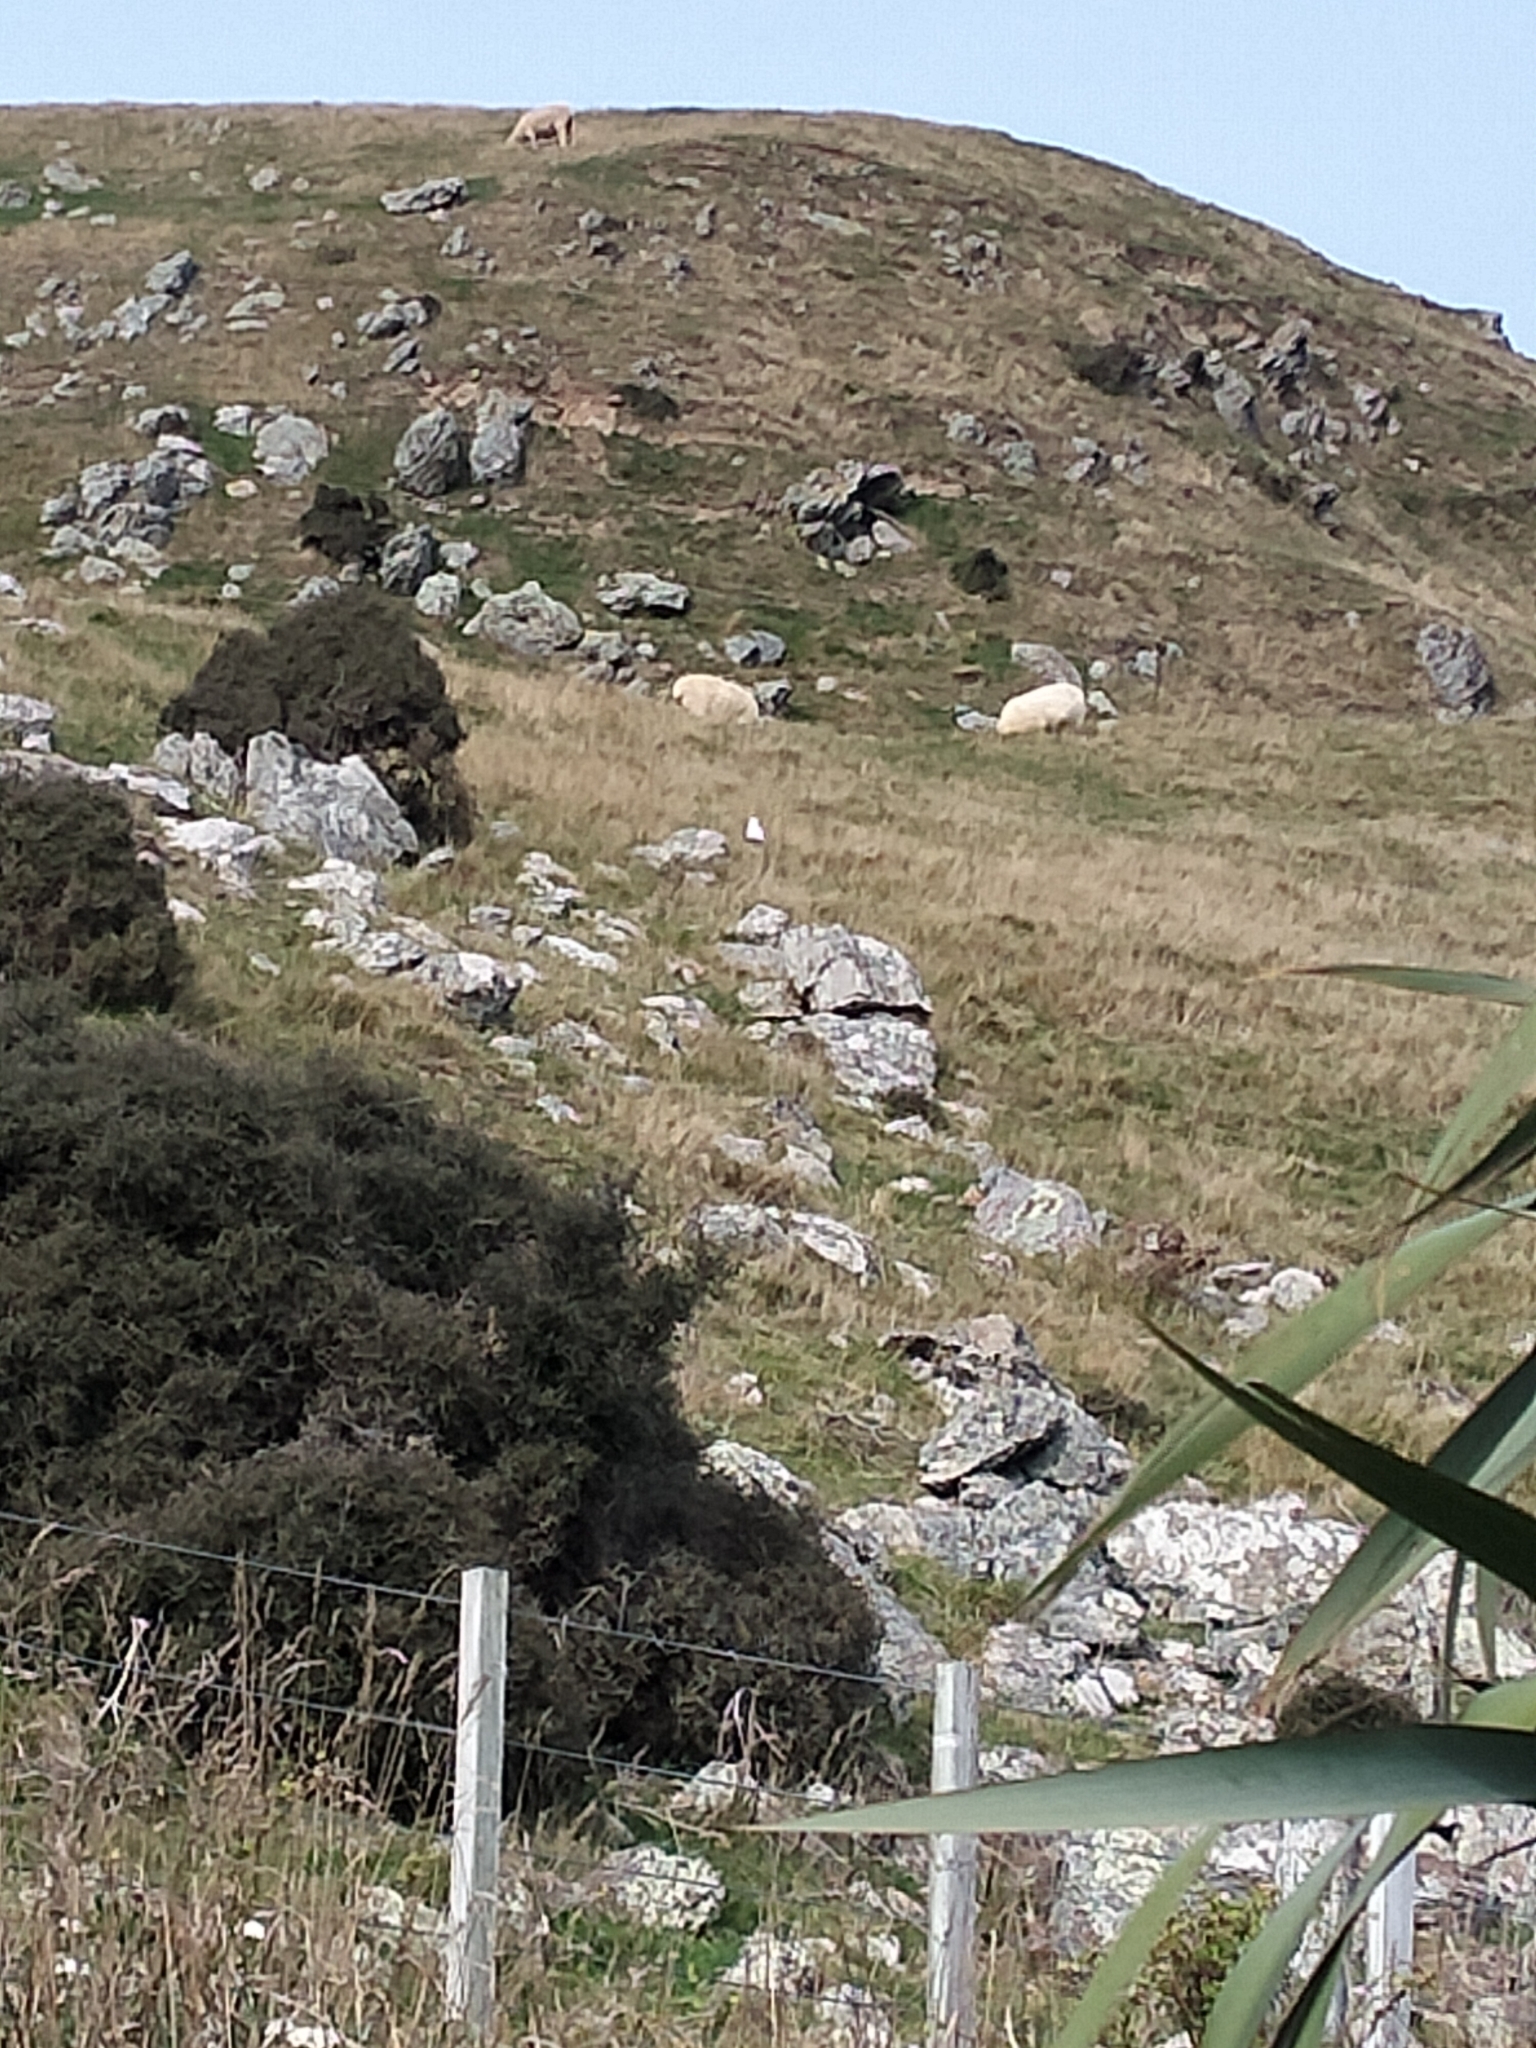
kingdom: Animalia
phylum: Chordata
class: Mammalia
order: Artiodactyla
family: Bovidae
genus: Ovis
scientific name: Ovis aries
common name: Domestic sheep
